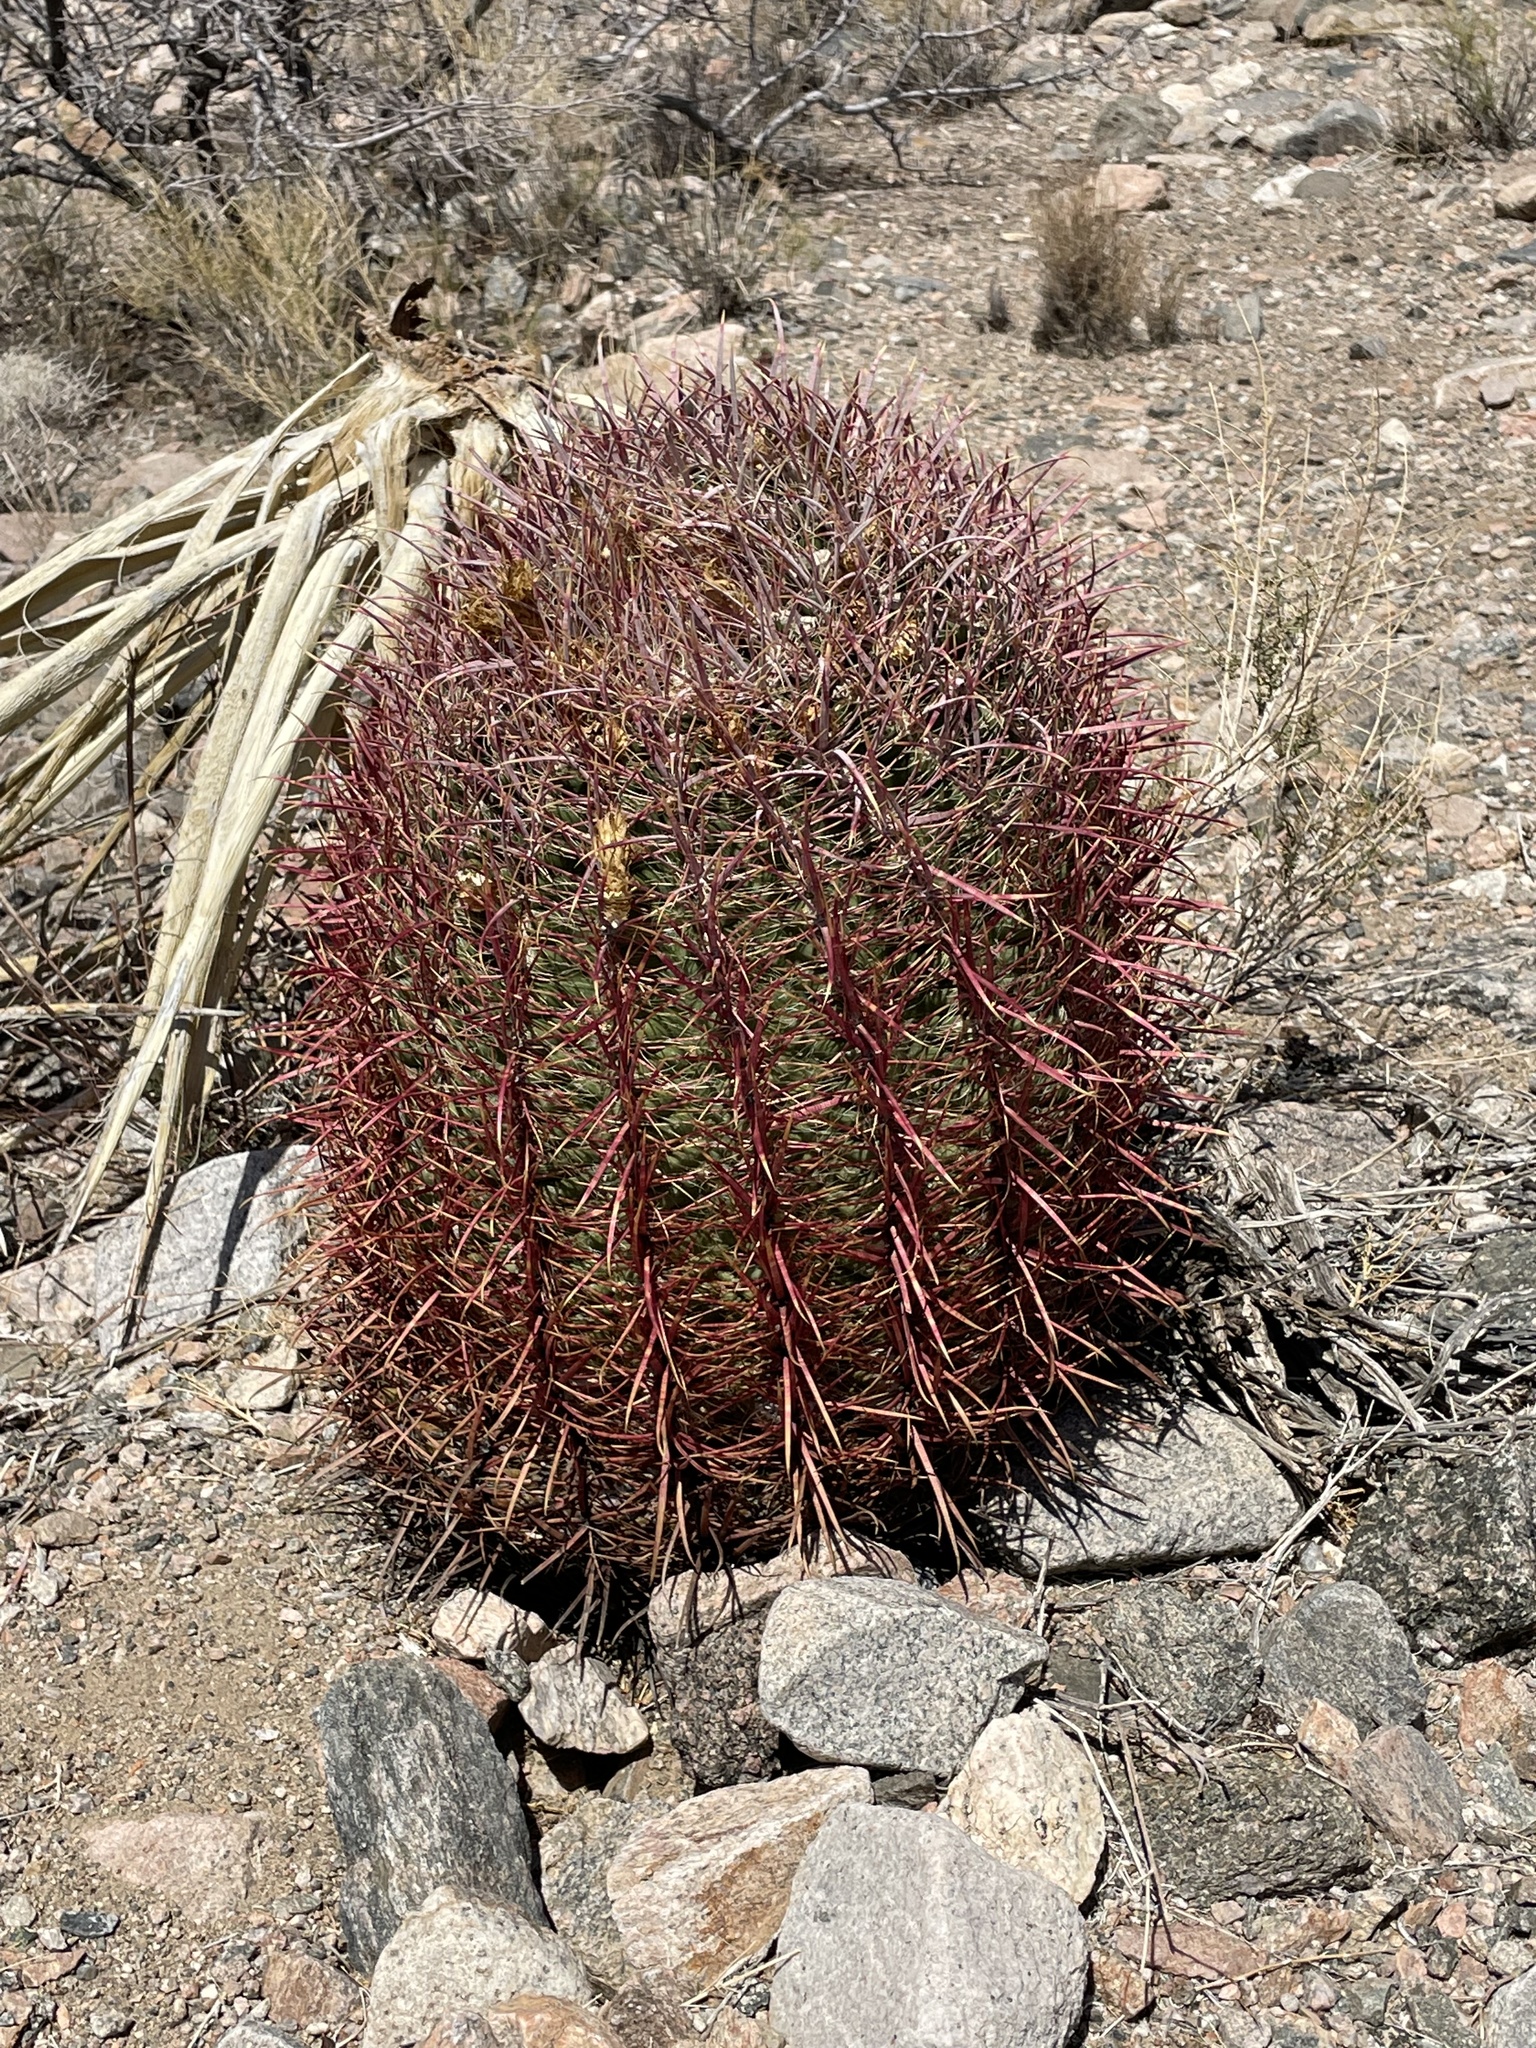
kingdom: Plantae
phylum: Tracheophyta
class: Magnoliopsida
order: Caryophyllales
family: Cactaceae
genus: Ferocactus
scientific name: Ferocactus cylindraceus
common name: California barrel cactus
